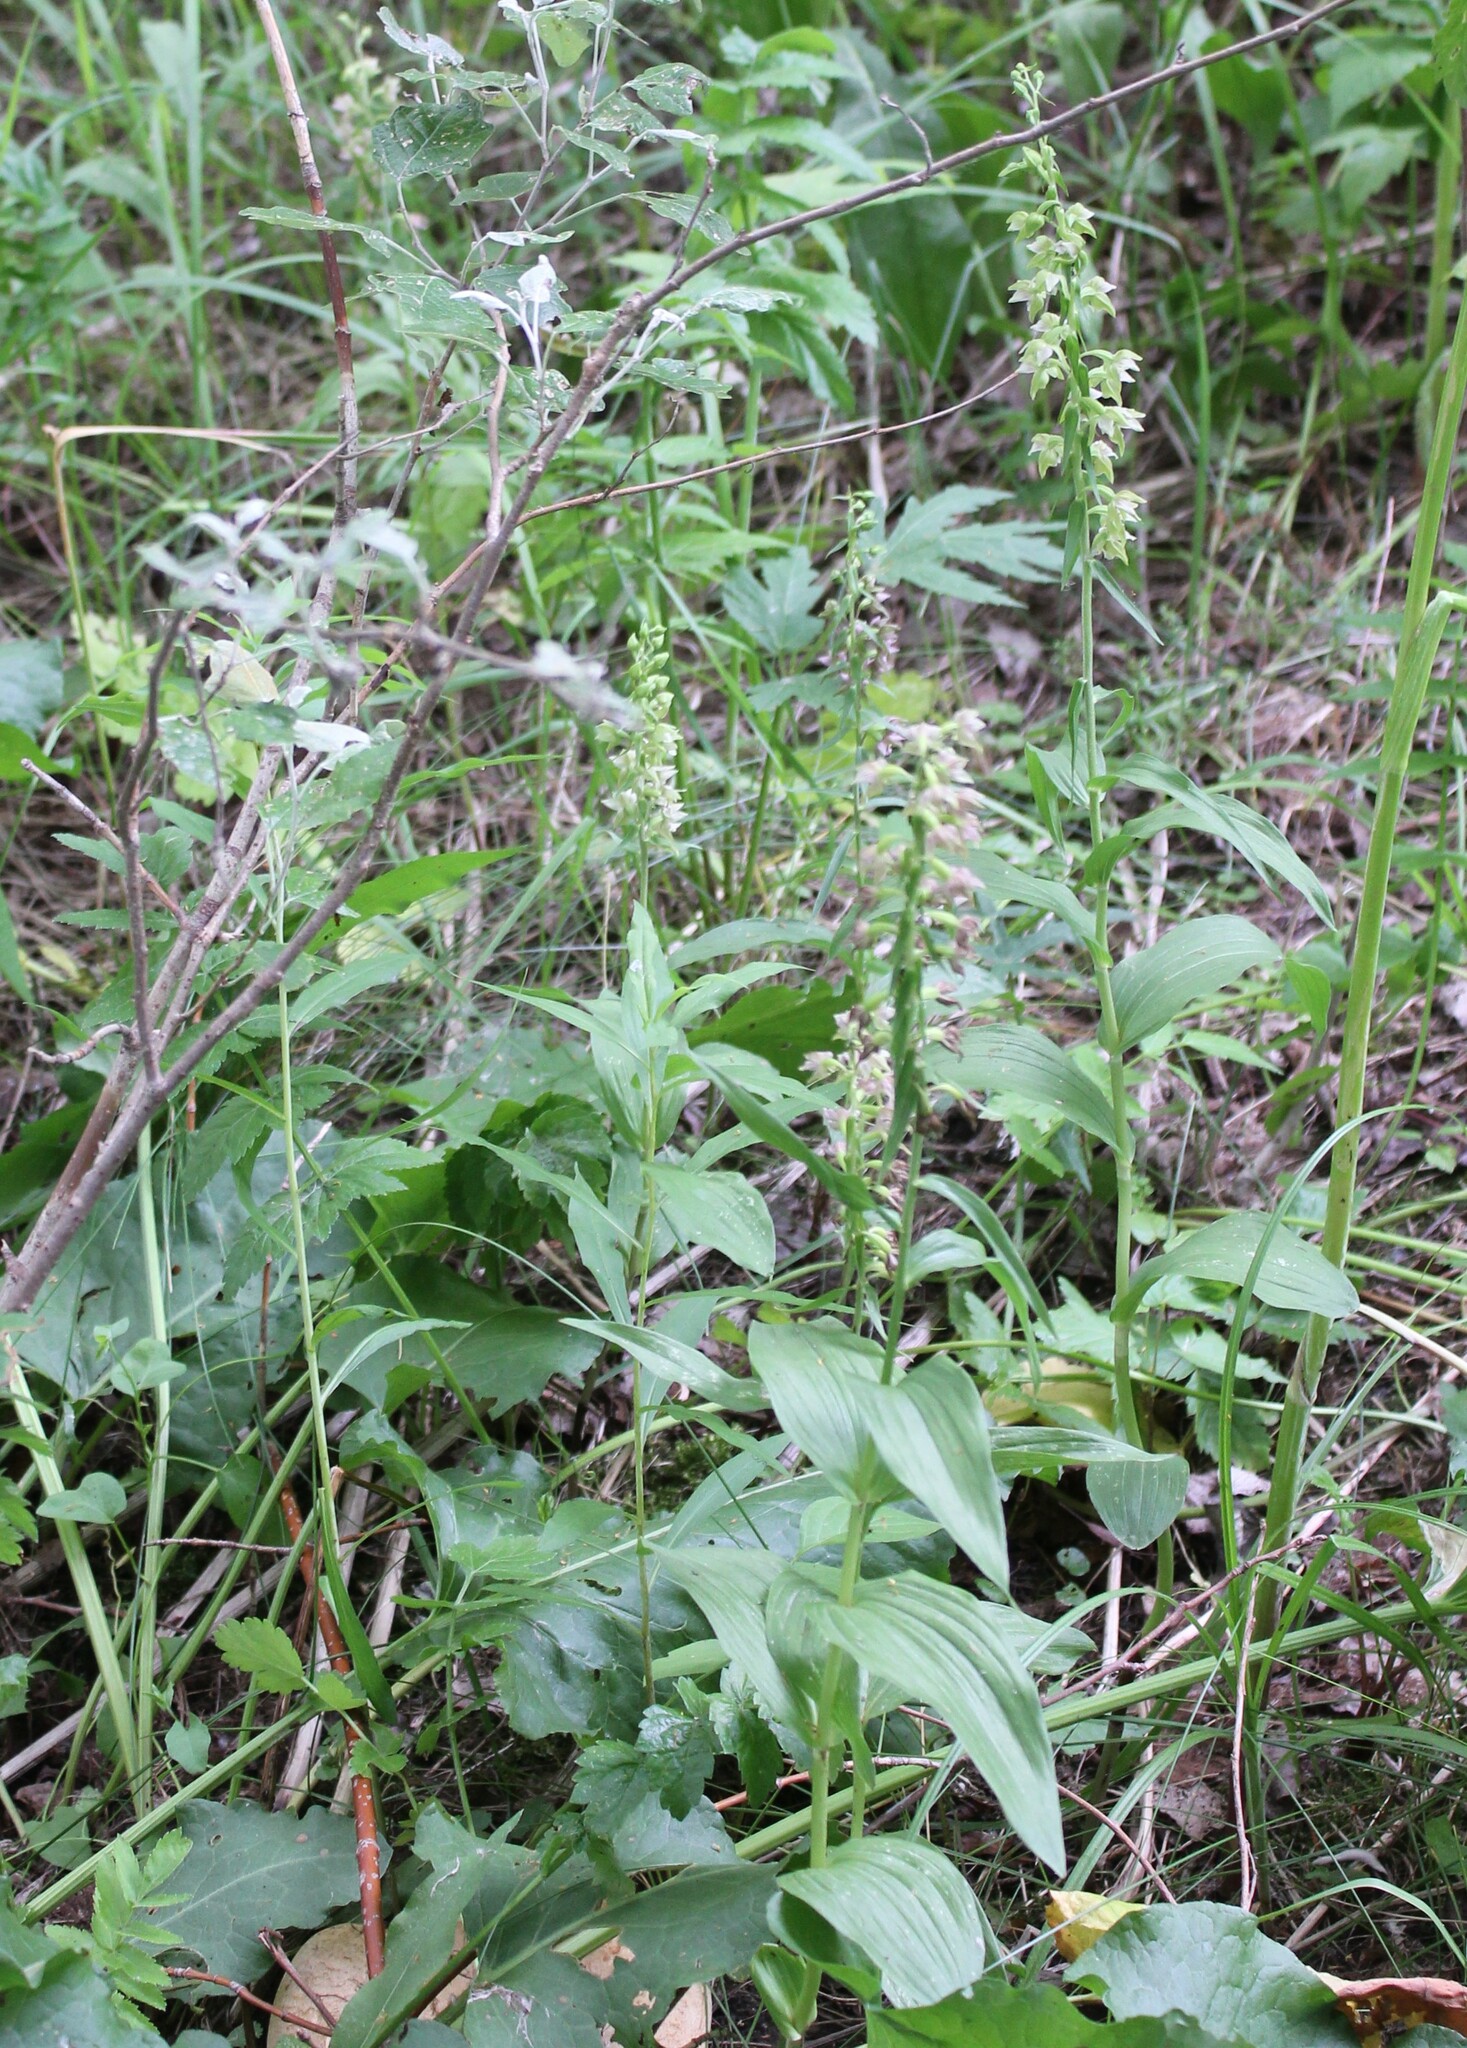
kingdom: Plantae
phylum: Tracheophyta
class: Liliopsida
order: Asparagales
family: Orchidaceae
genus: Epipactis
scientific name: Epipactis helleborine
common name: Broad-leaved helleborine
